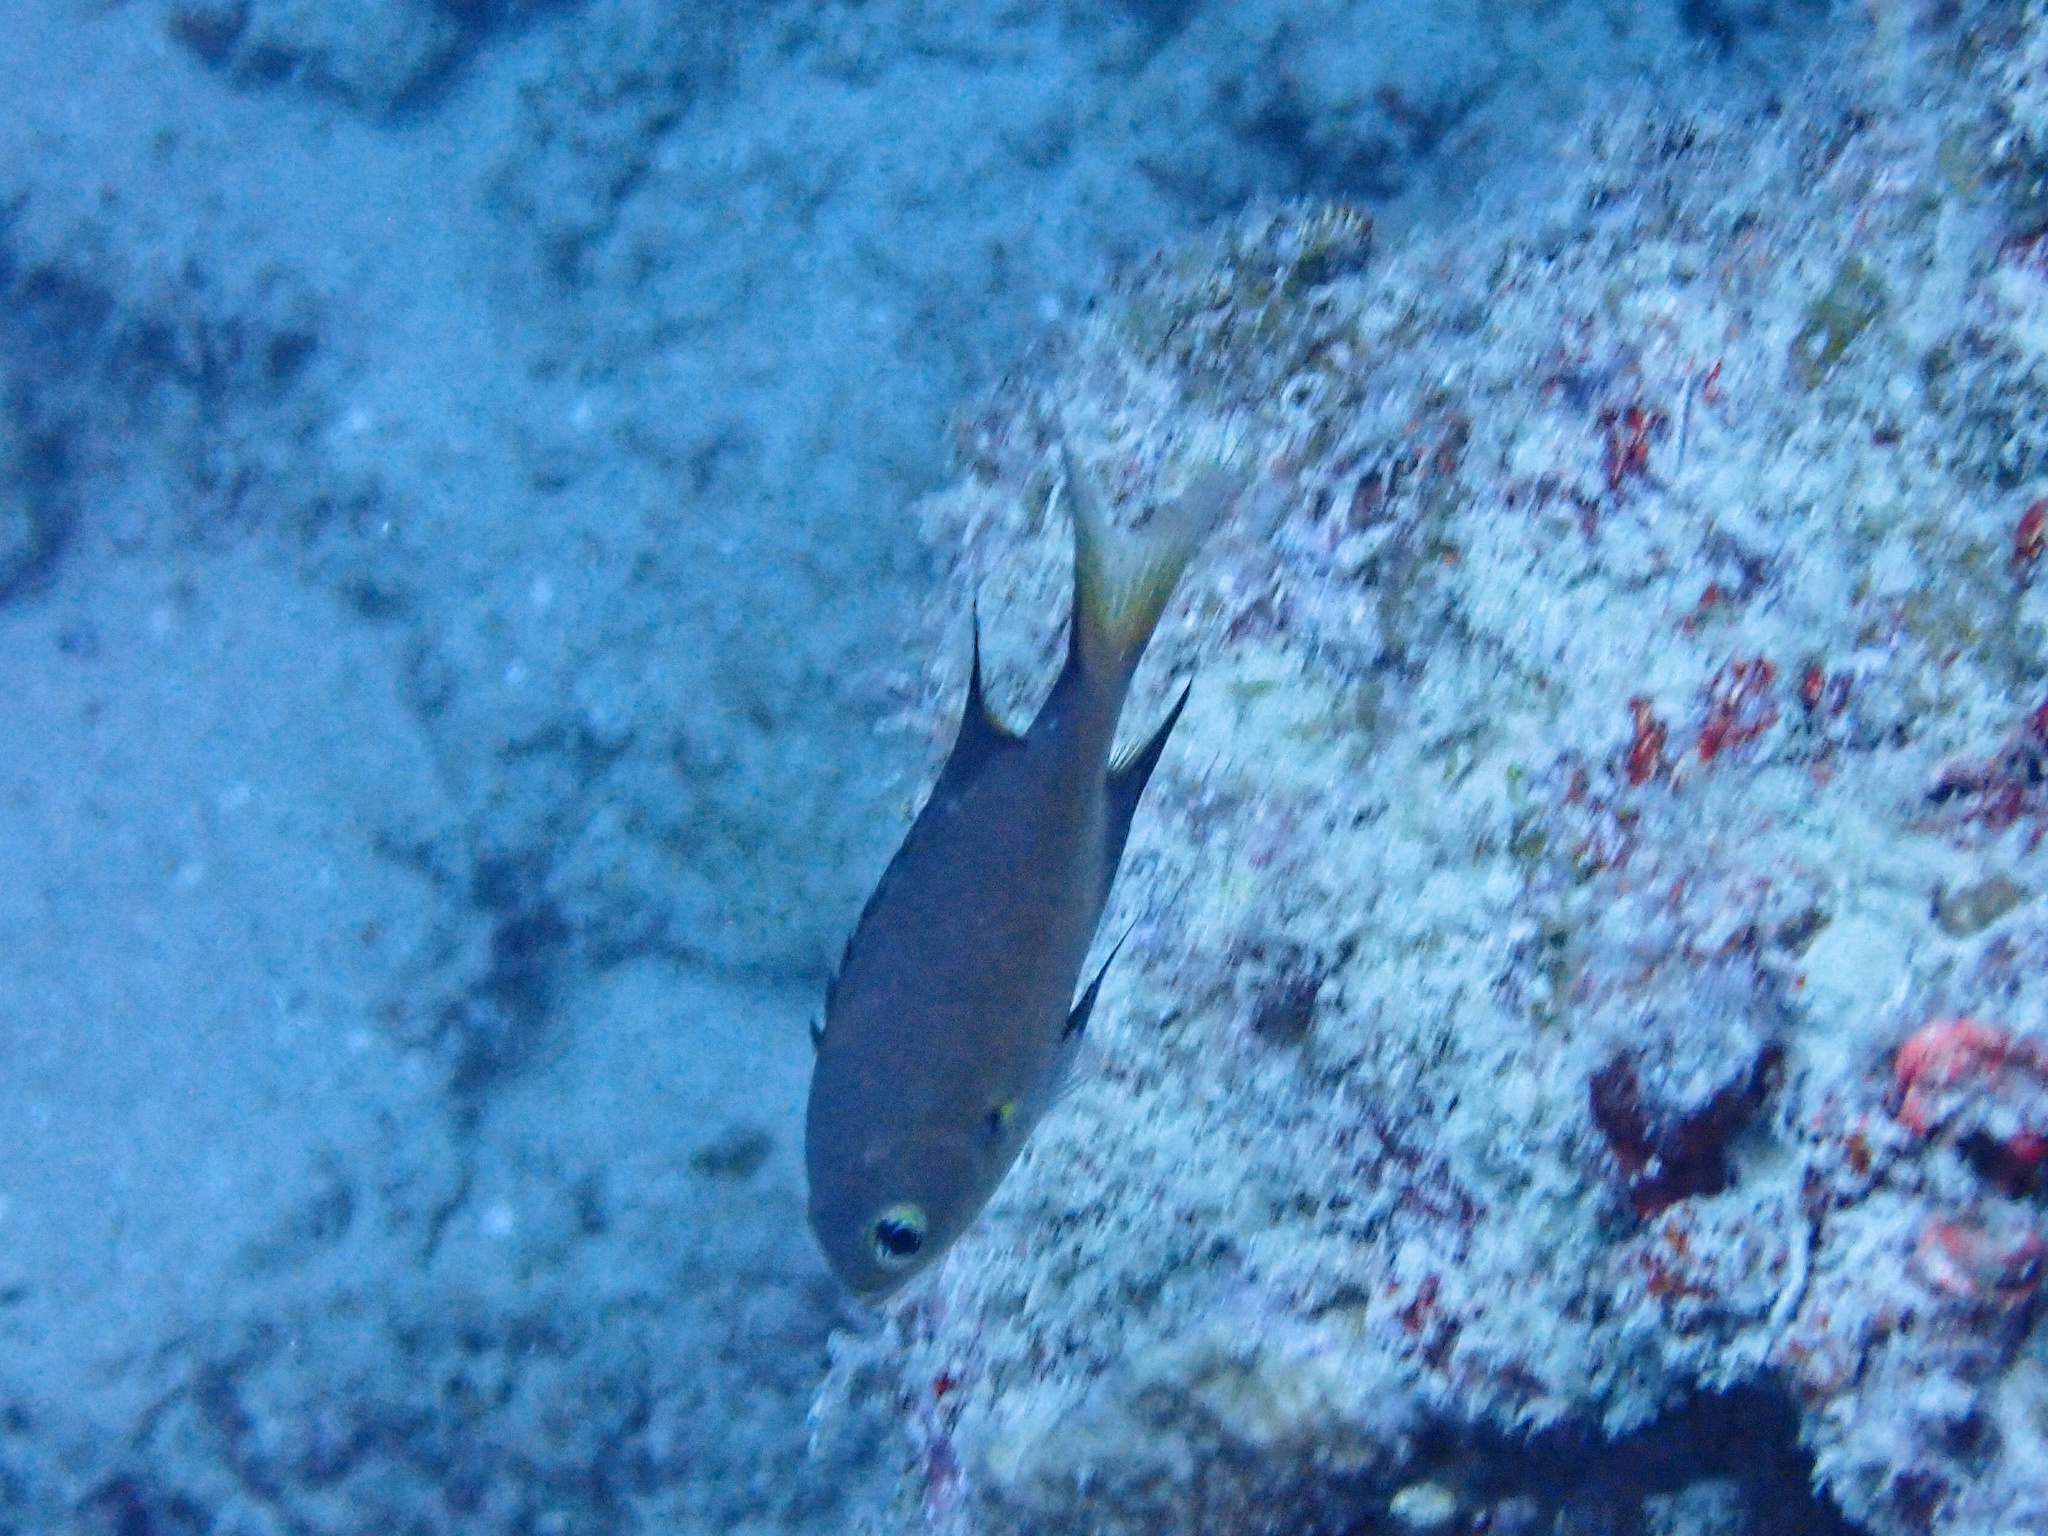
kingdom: Animalia
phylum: Chordata
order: Perciformes
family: Pomacentridae
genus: Chromis
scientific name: Chromis atripes
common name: Dark-fin chromis
